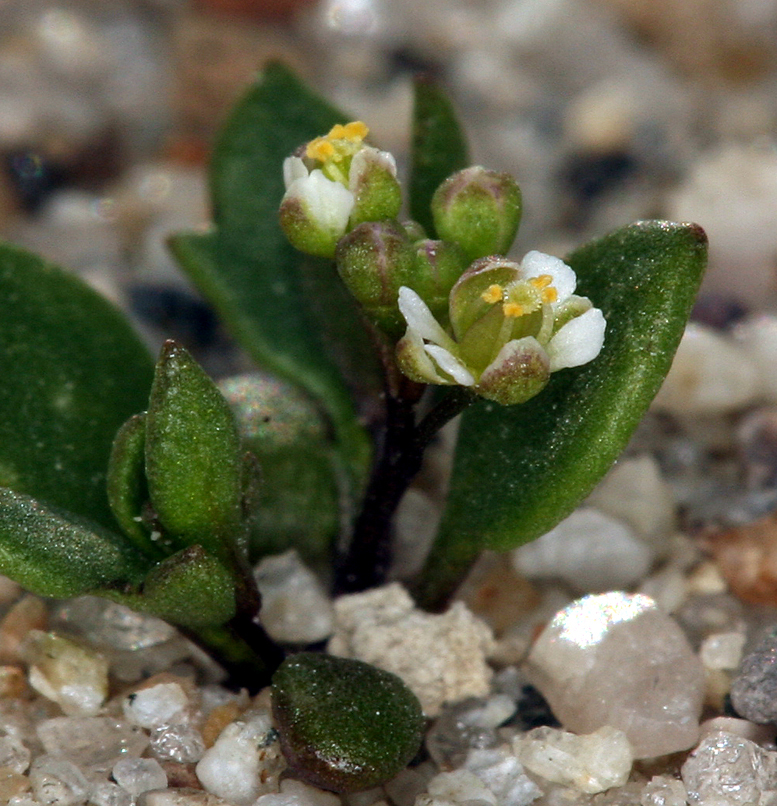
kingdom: Plantae
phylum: Tracheophyta
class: Magnoliopsida
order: Brassicales
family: Brassicaceae
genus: Hornungia
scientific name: Hornungia procumbens
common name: Oval purse
